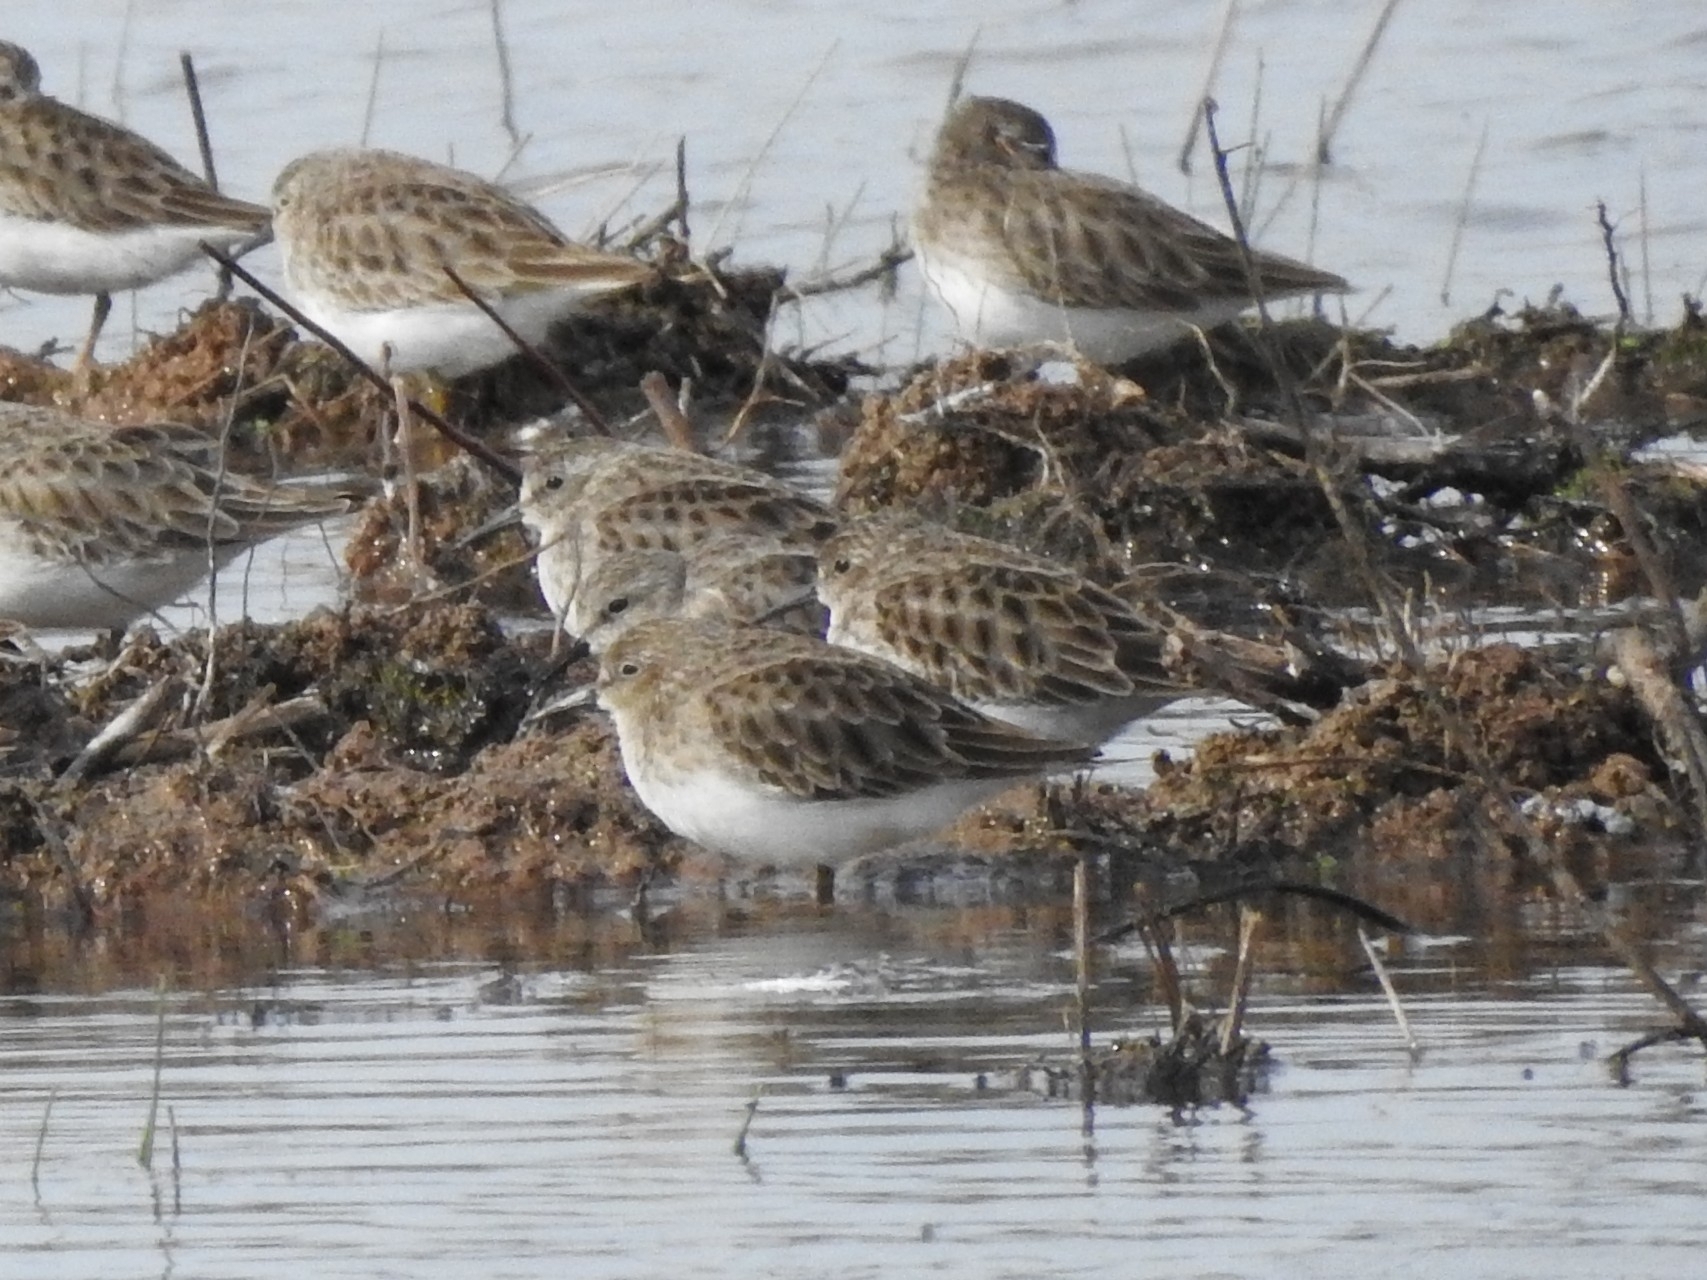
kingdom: Animalia
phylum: Chordata
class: Aves
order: Charadriiformes
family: Scolopacidae
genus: Calidris
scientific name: Calidris minutilla
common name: Least sandpiper
